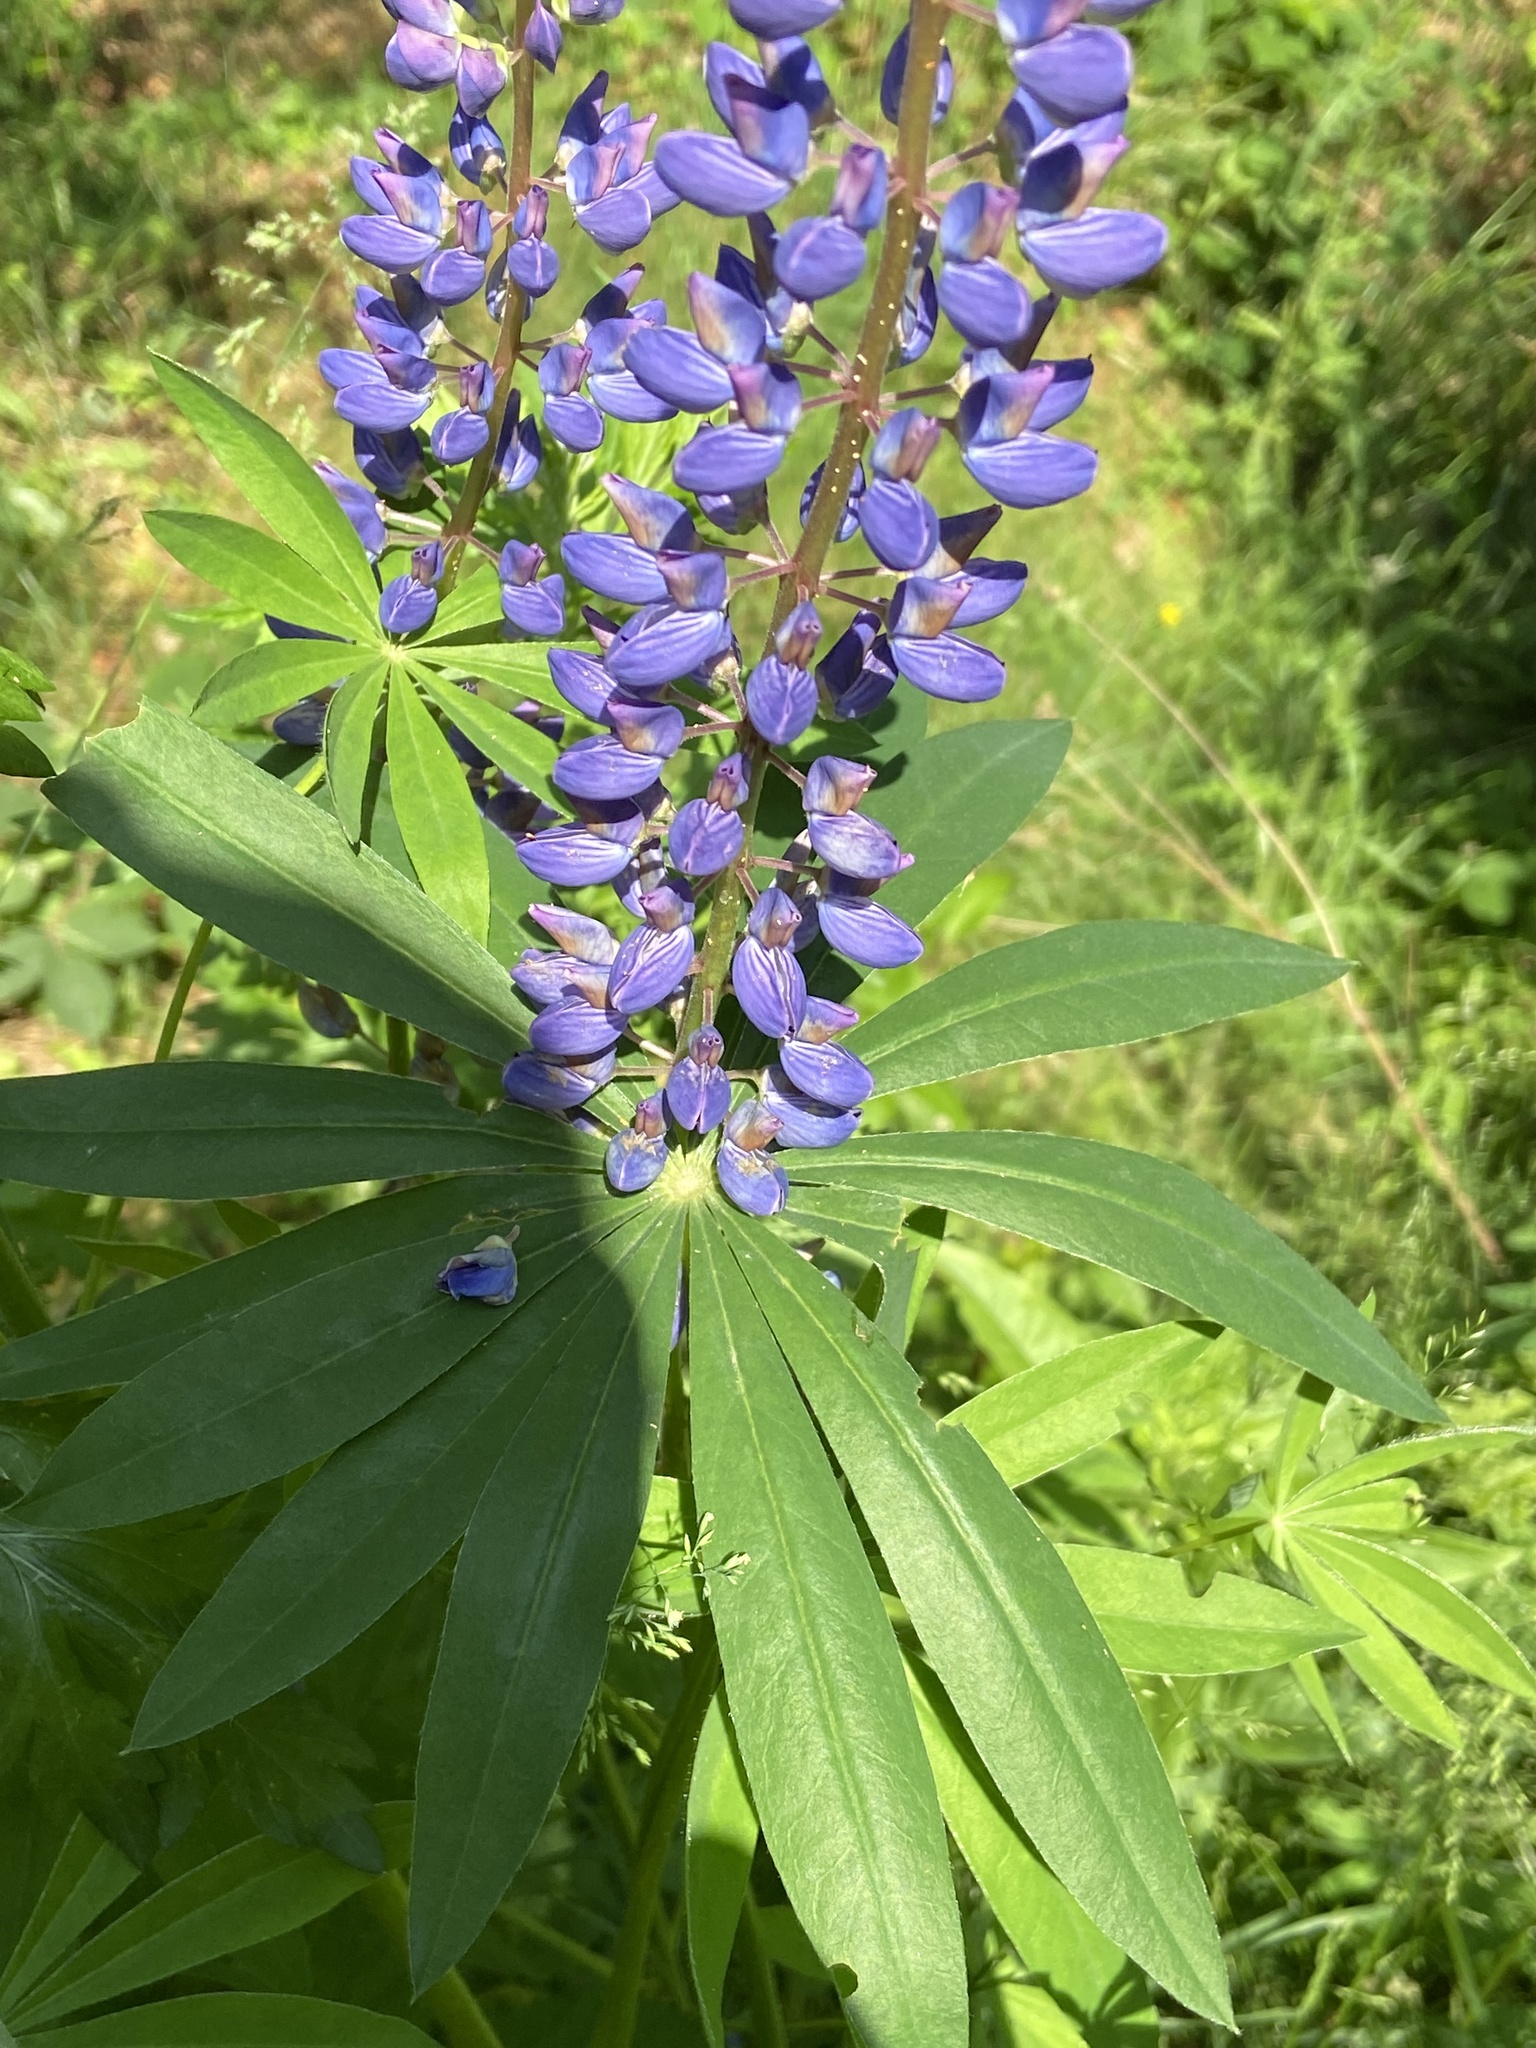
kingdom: Plantae
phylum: Tracheophyta
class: Magnoliopsida
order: Fabales
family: Fabaceae
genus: Lupinus
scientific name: Lupinus polyphyllus
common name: Garden lupin
